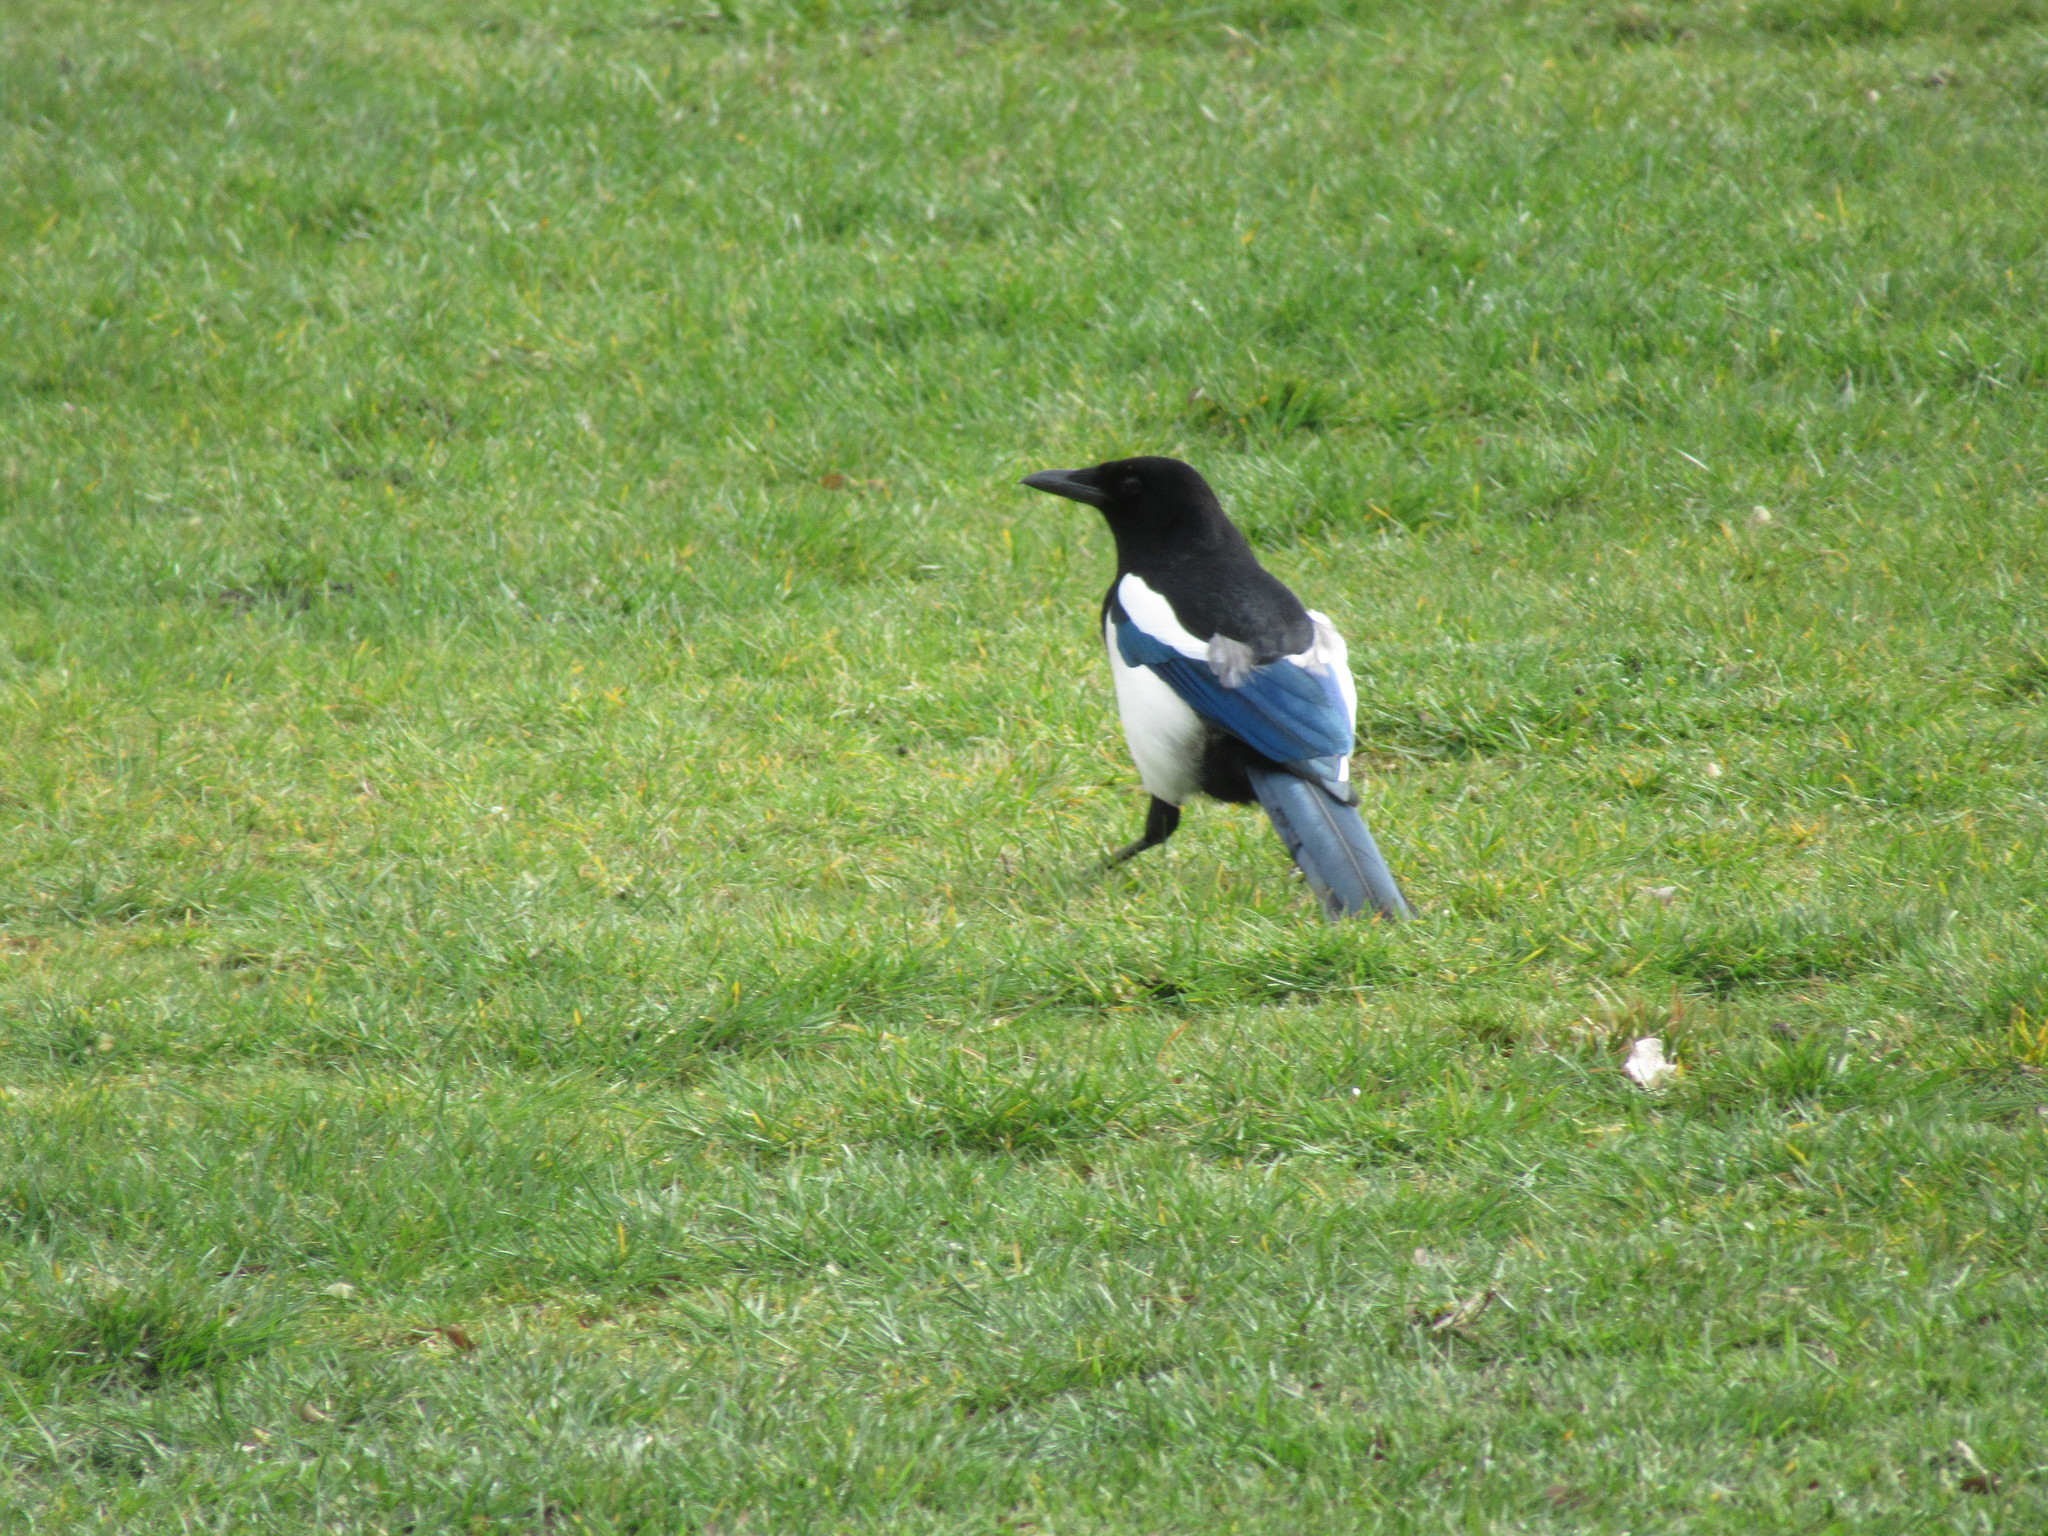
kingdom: Animalia
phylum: Chordata
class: Aves
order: Passeriformes
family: Corvidae
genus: Pica
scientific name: Pica pica
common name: Eurasian magpie
